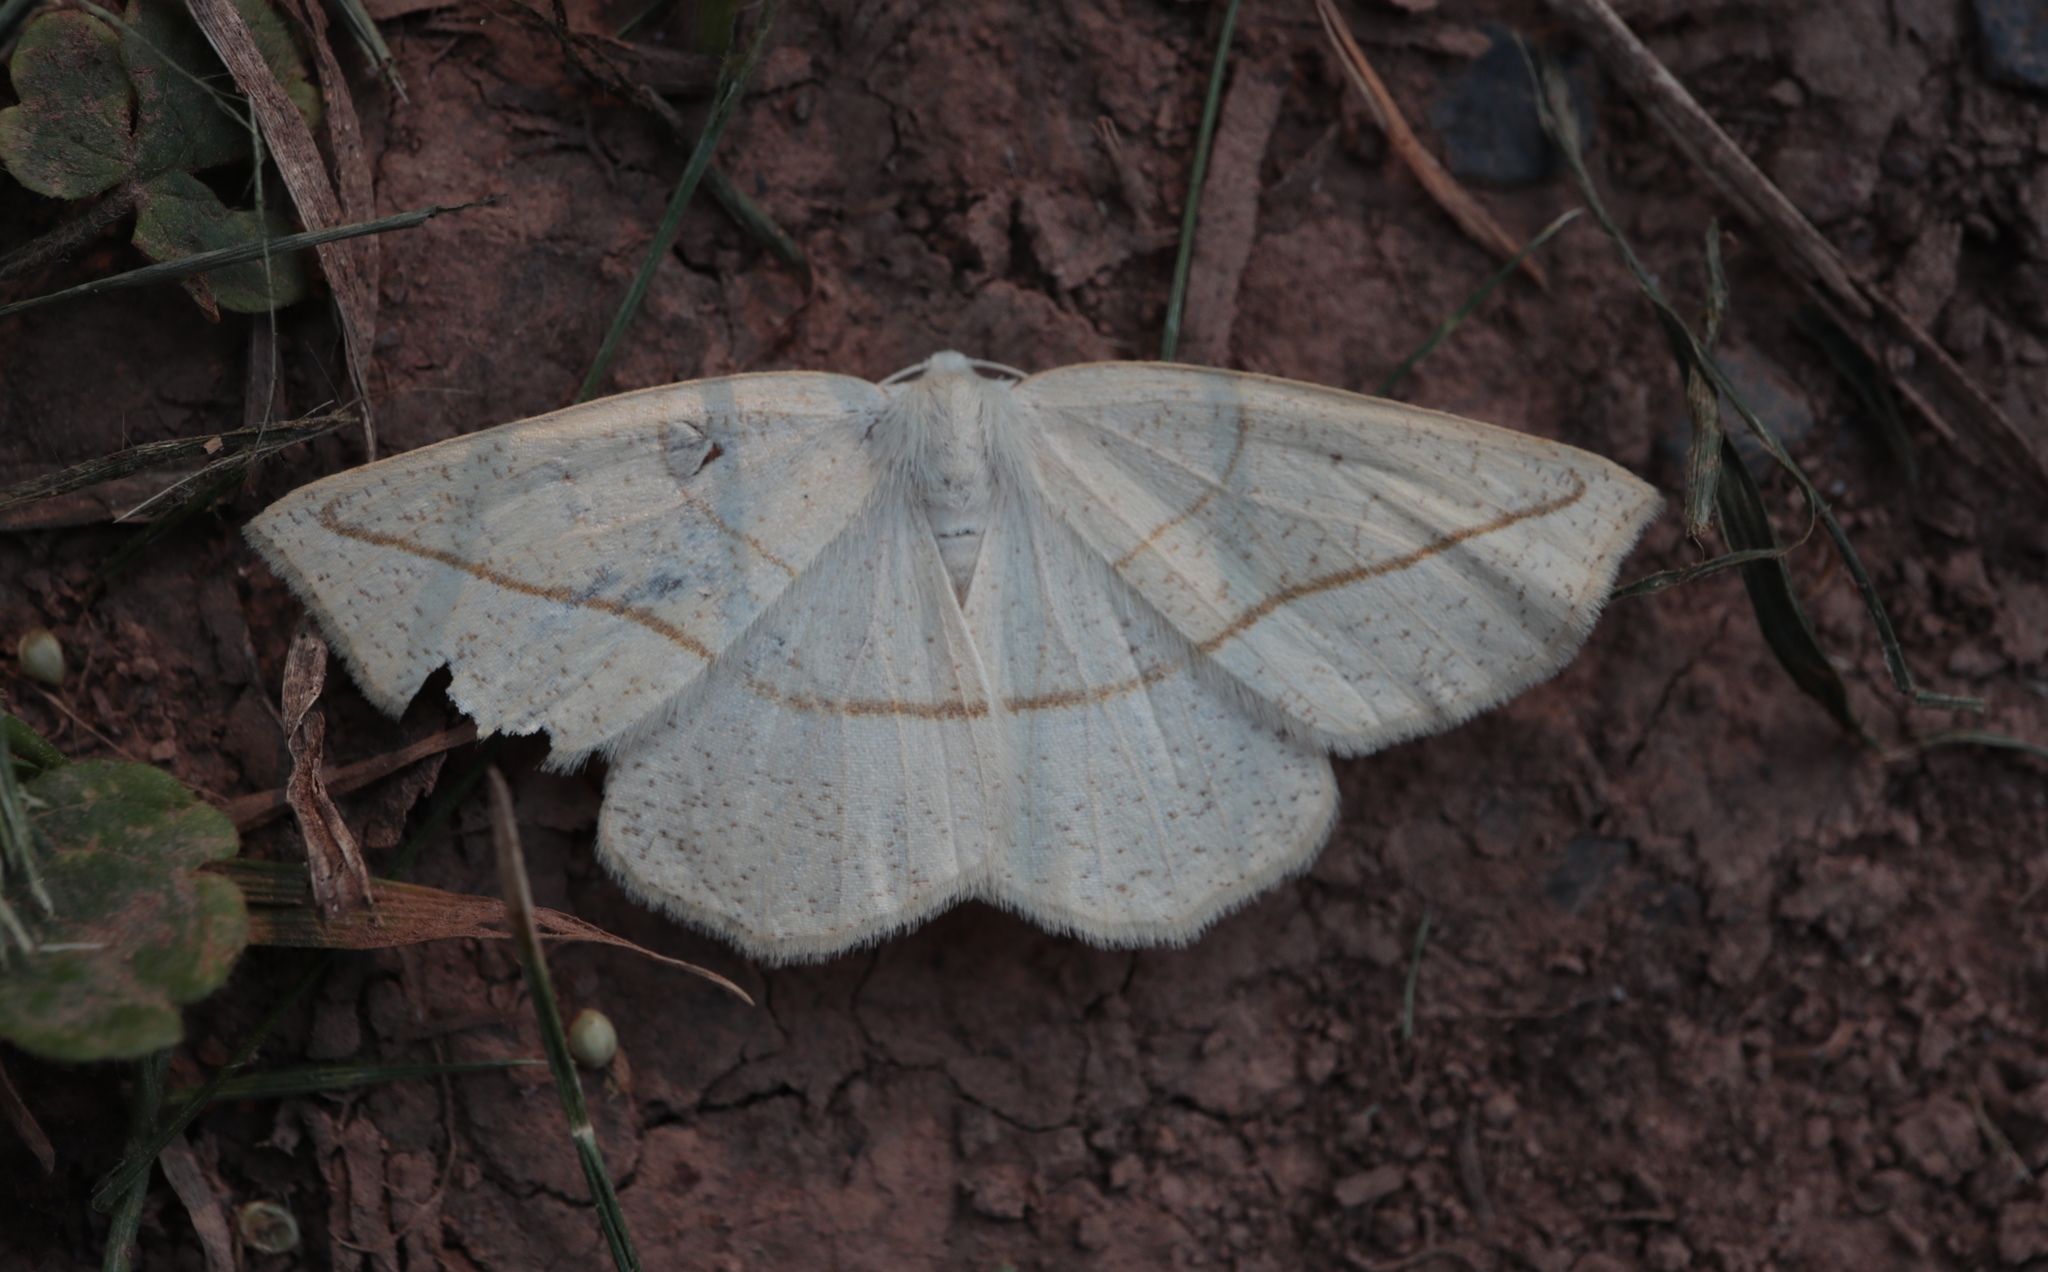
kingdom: Animalia
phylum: Arthropoda
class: Insecta
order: Lepidoptera
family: Geometridae
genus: Eusarca
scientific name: Eusarca confusaria
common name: Confused eusarca
